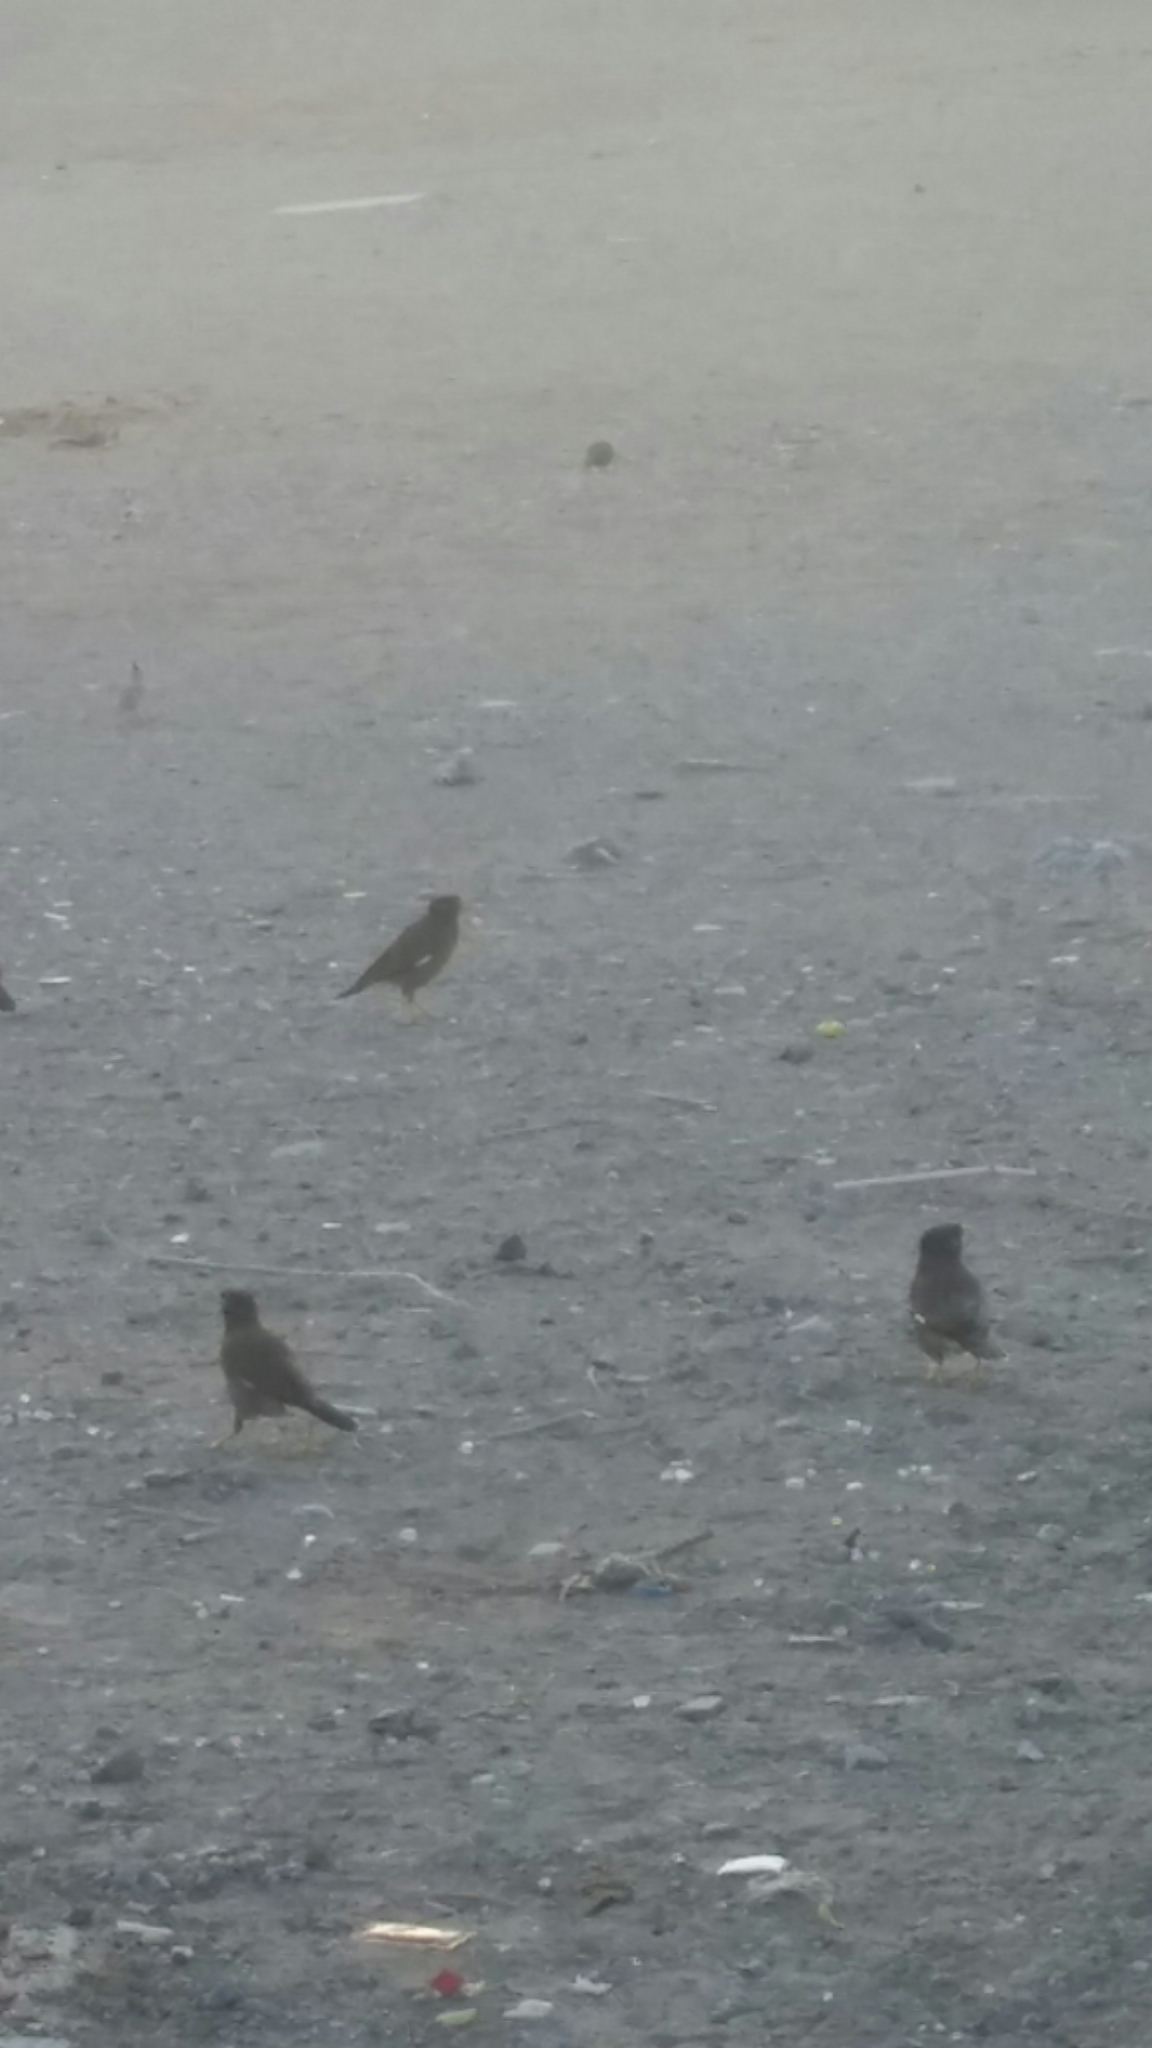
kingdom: Animalia
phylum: Chordata
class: Aves
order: Passeriformes
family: Sturnidae
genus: Acridotheres
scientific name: Acridotheres tristis
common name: Common myna
